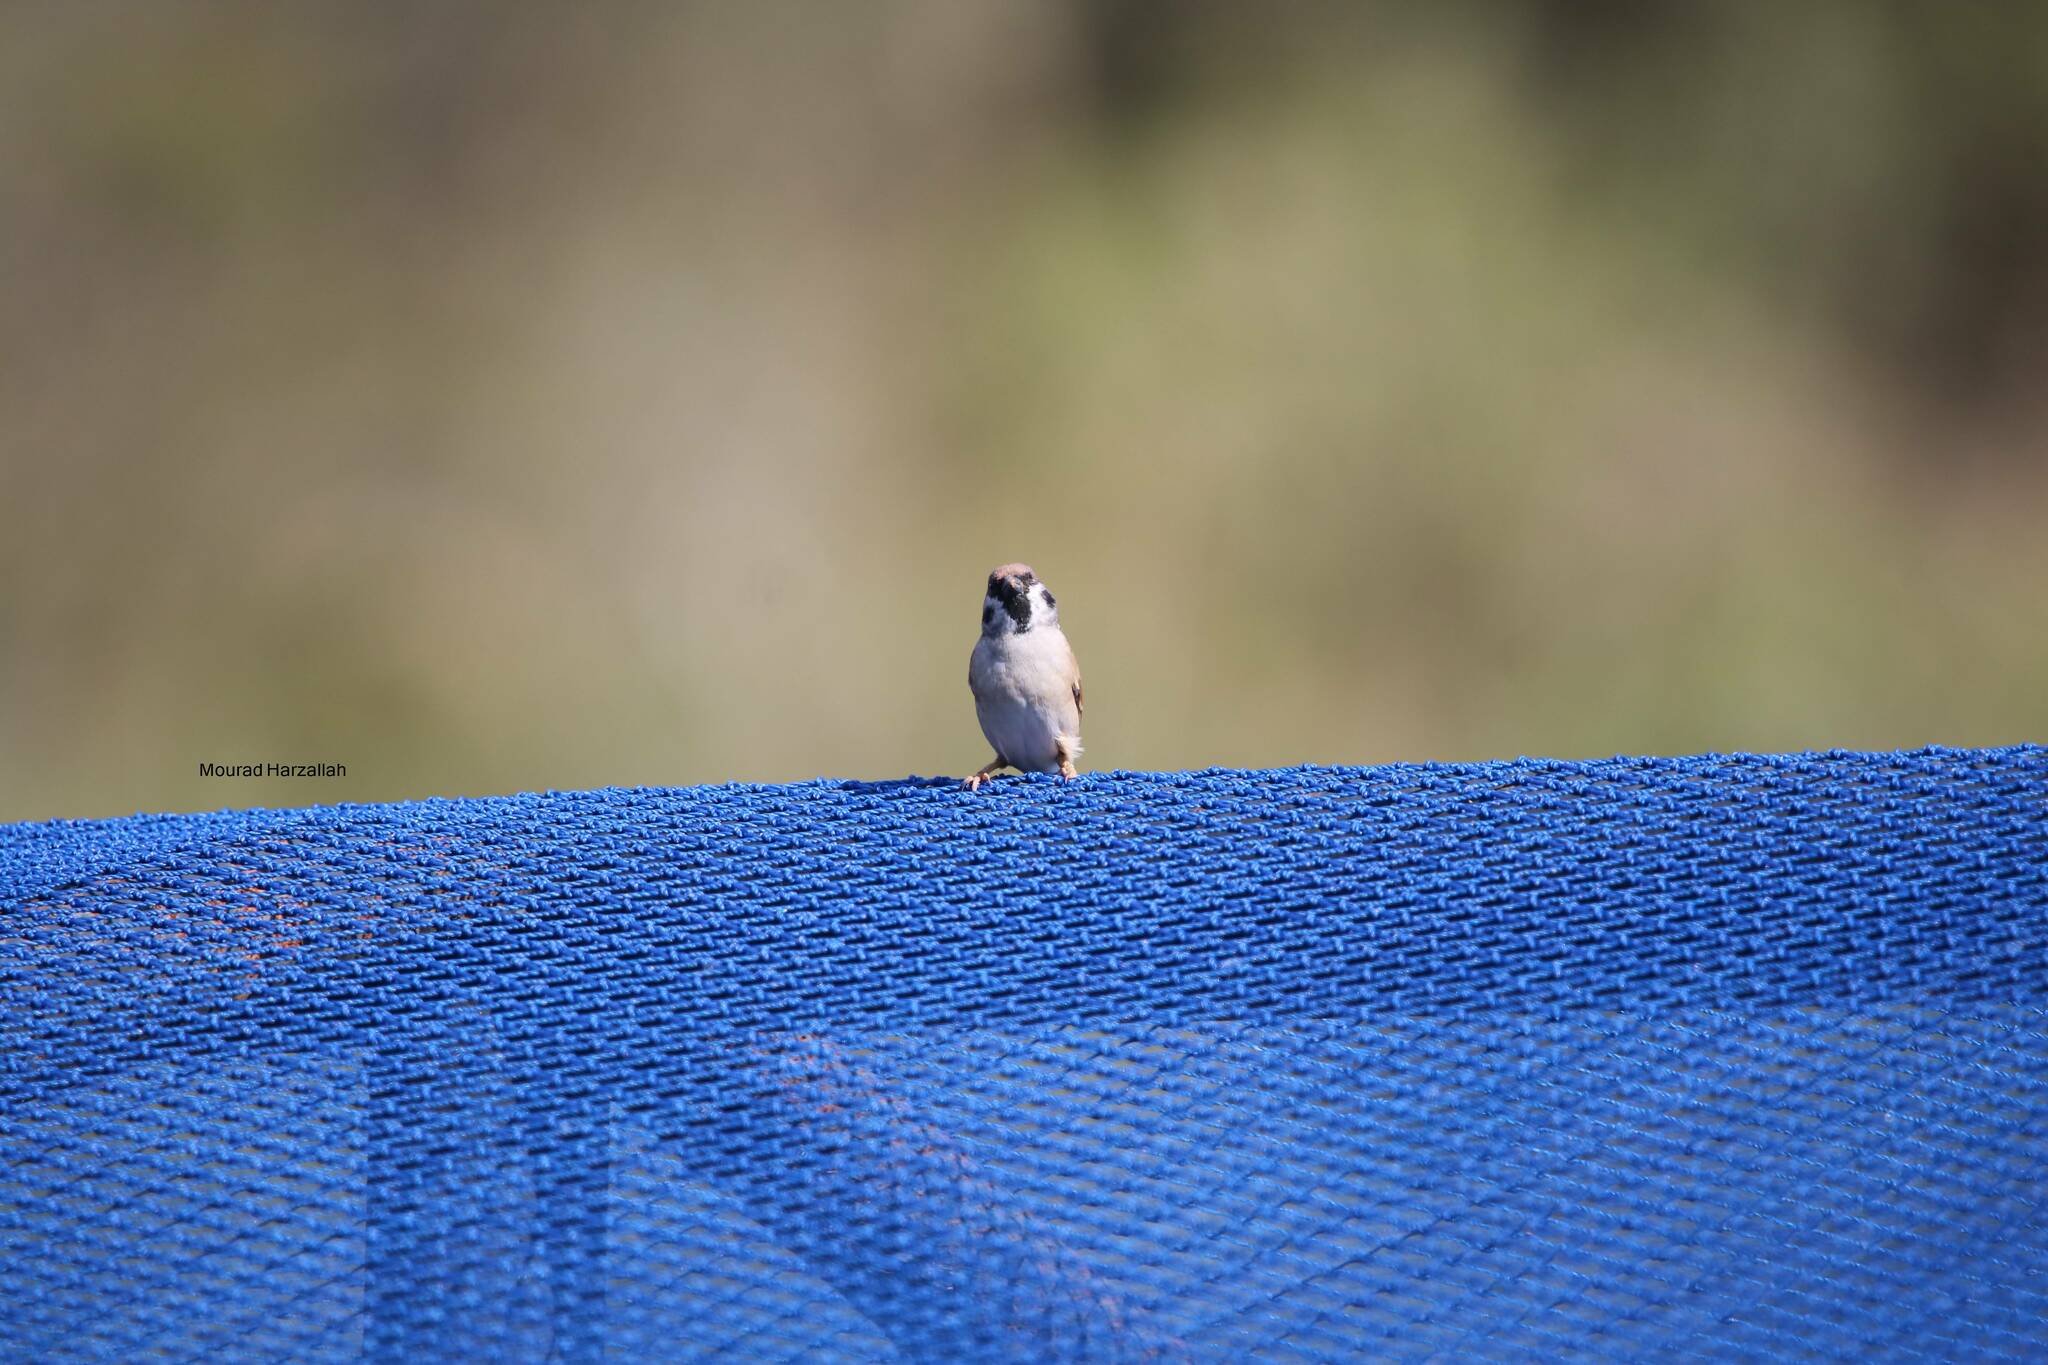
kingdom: Animalia
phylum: Chordata
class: Aves
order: Passeriformes
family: Passeridae
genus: Passer
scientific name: Passer montanus
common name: Eurasian tree sparrow
